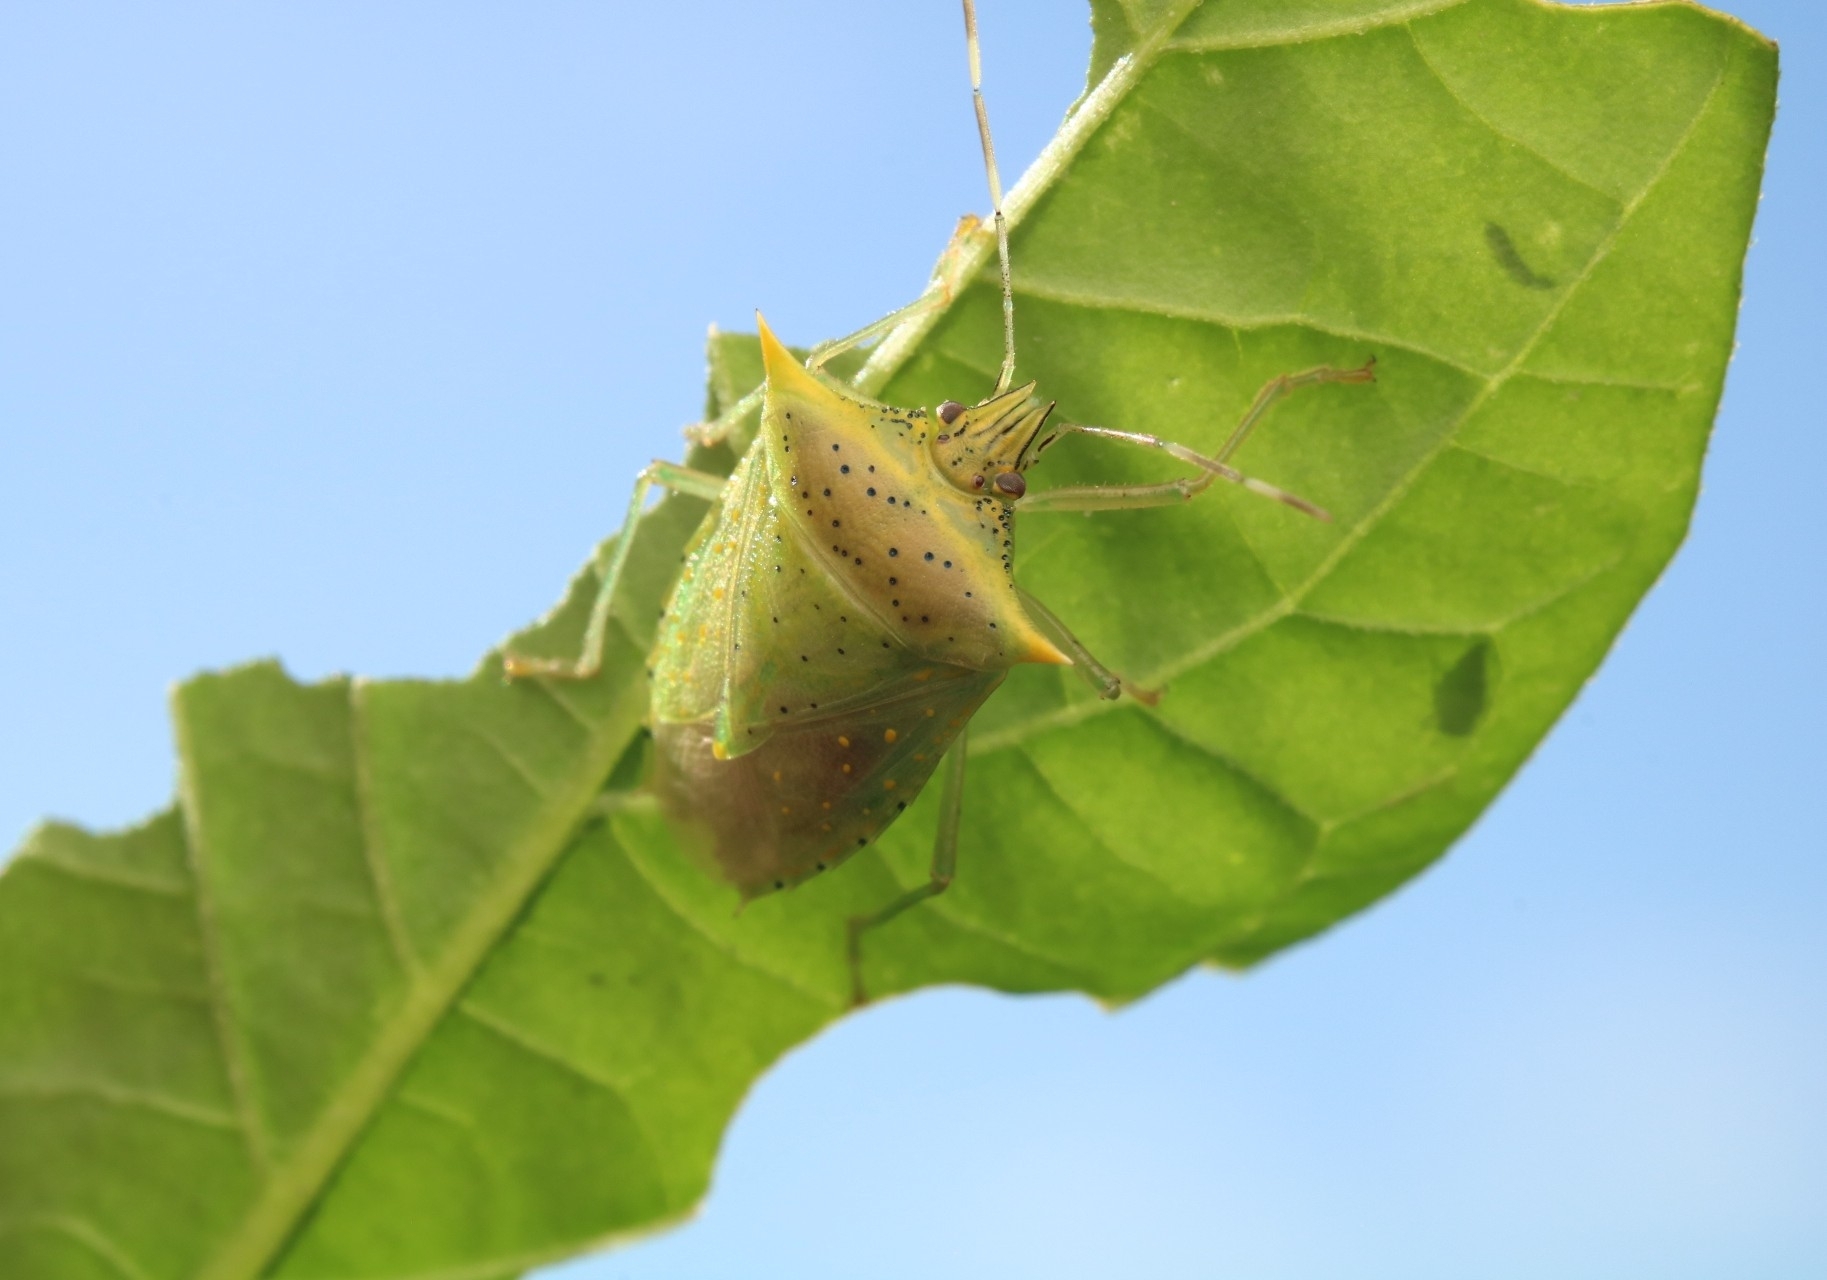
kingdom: Animalia
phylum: Arthropoda
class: Insecta
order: Hemiptera
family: Pentatomidae
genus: Arvelius
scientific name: Arvelius albopunctatus
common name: Tomato stink bug
